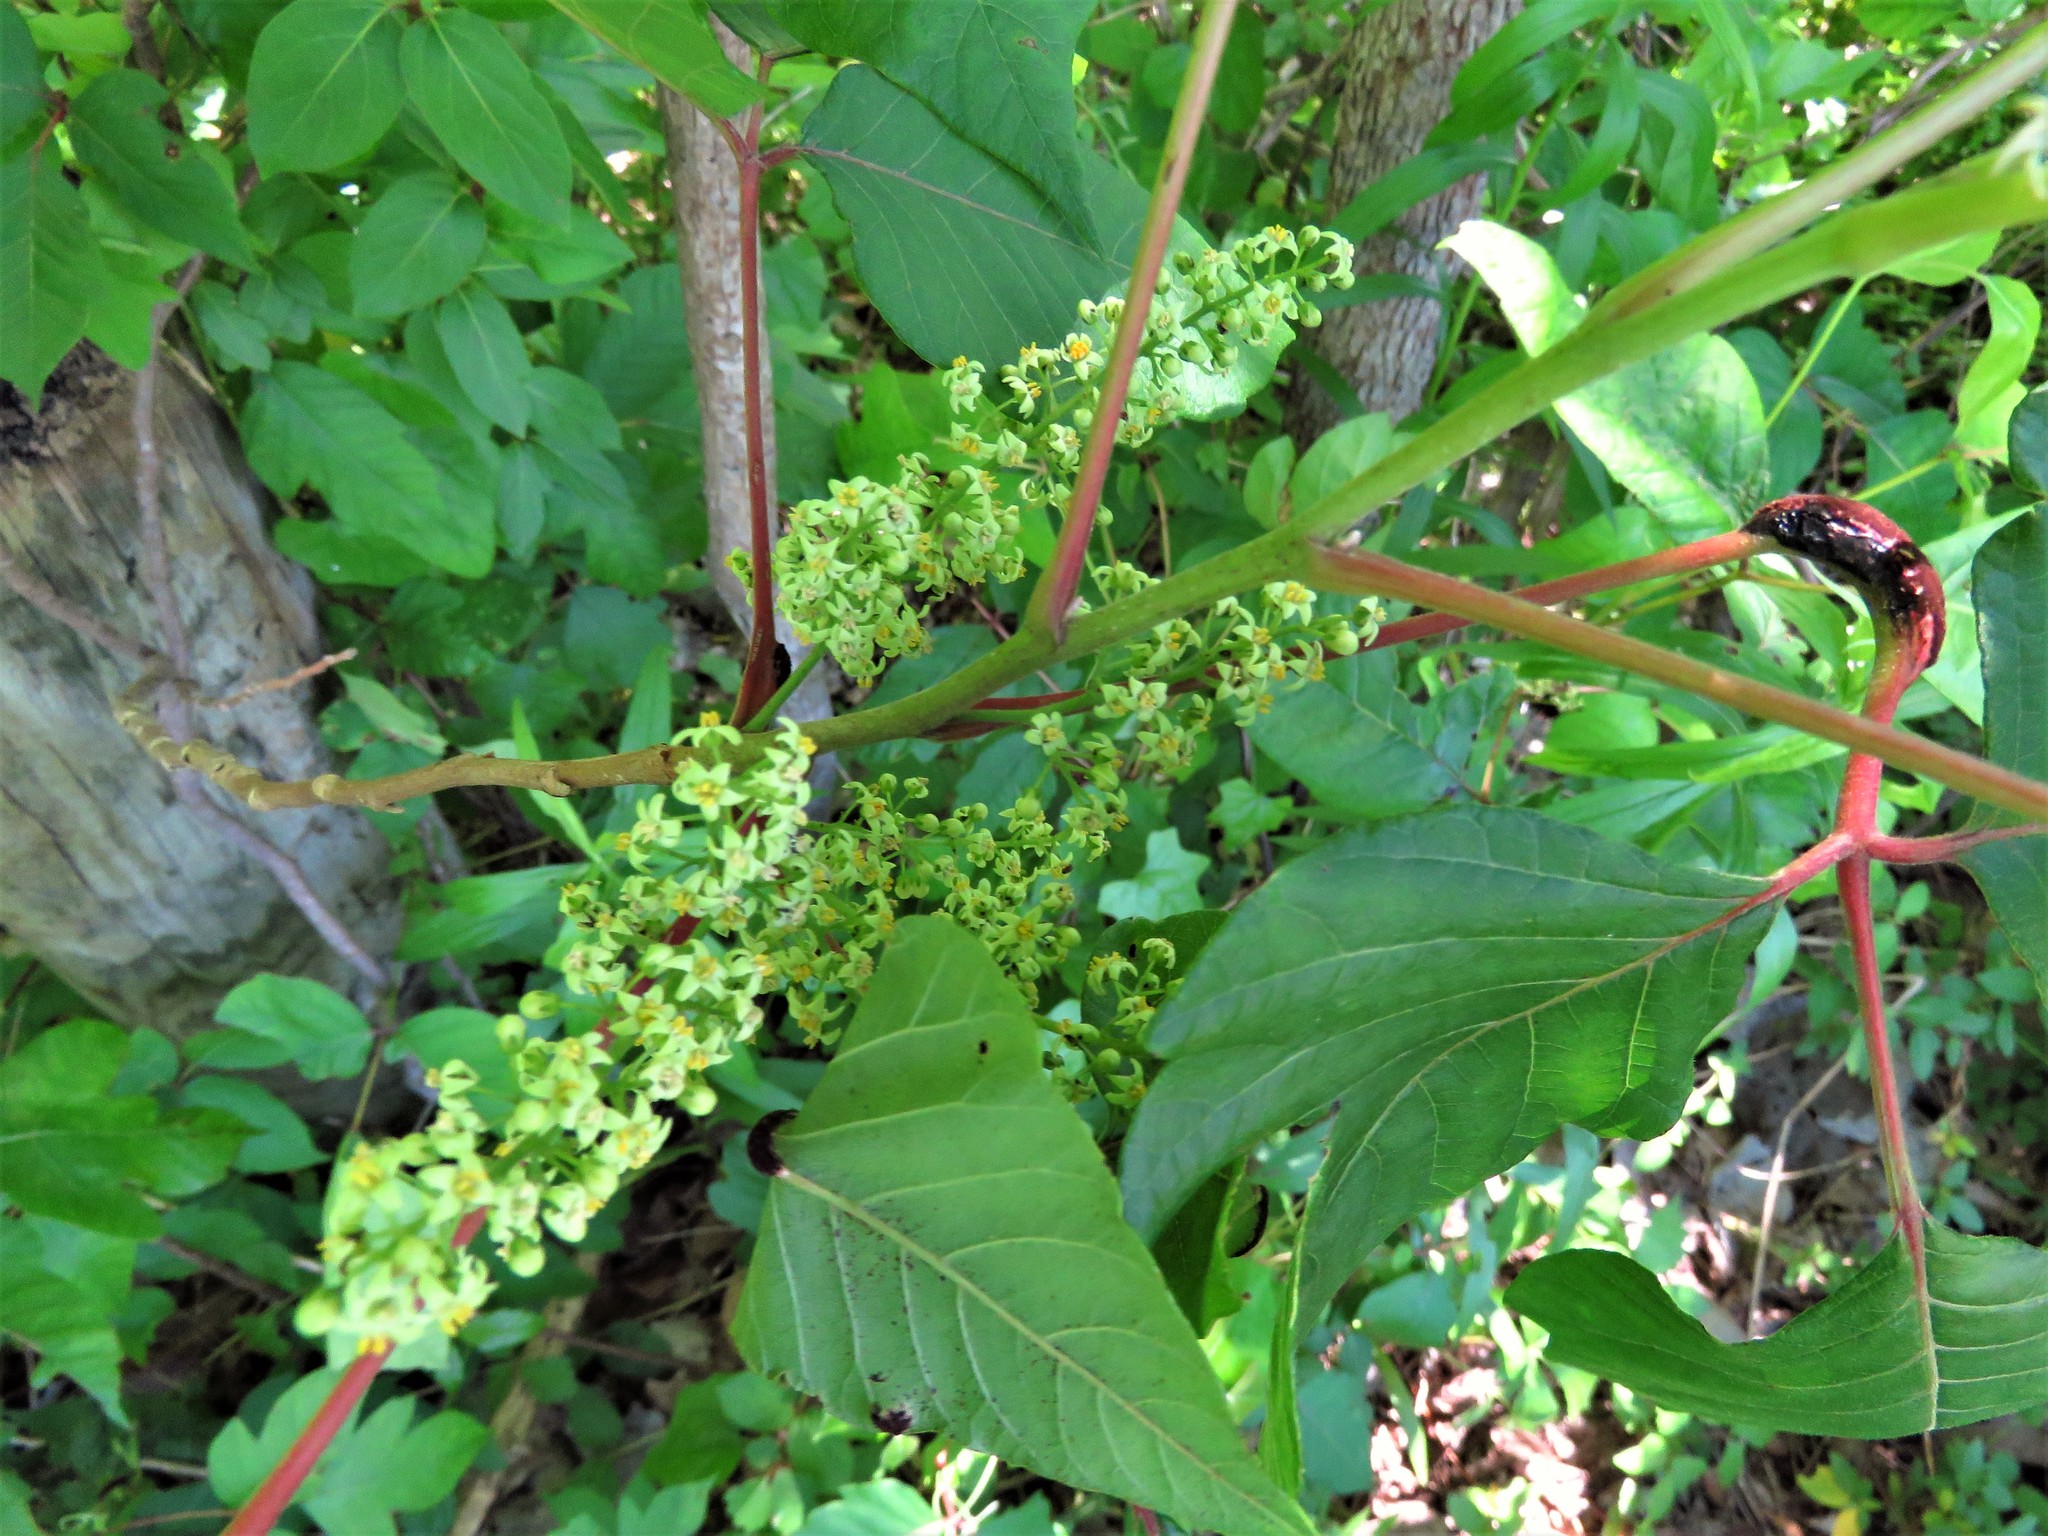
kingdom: Plantae
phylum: Tracheophyta
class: Magnoliopsida
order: Sapindales
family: Anacardiaceae
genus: Toxicodendron
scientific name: Toxicodendron radicans
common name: Poison ivy
